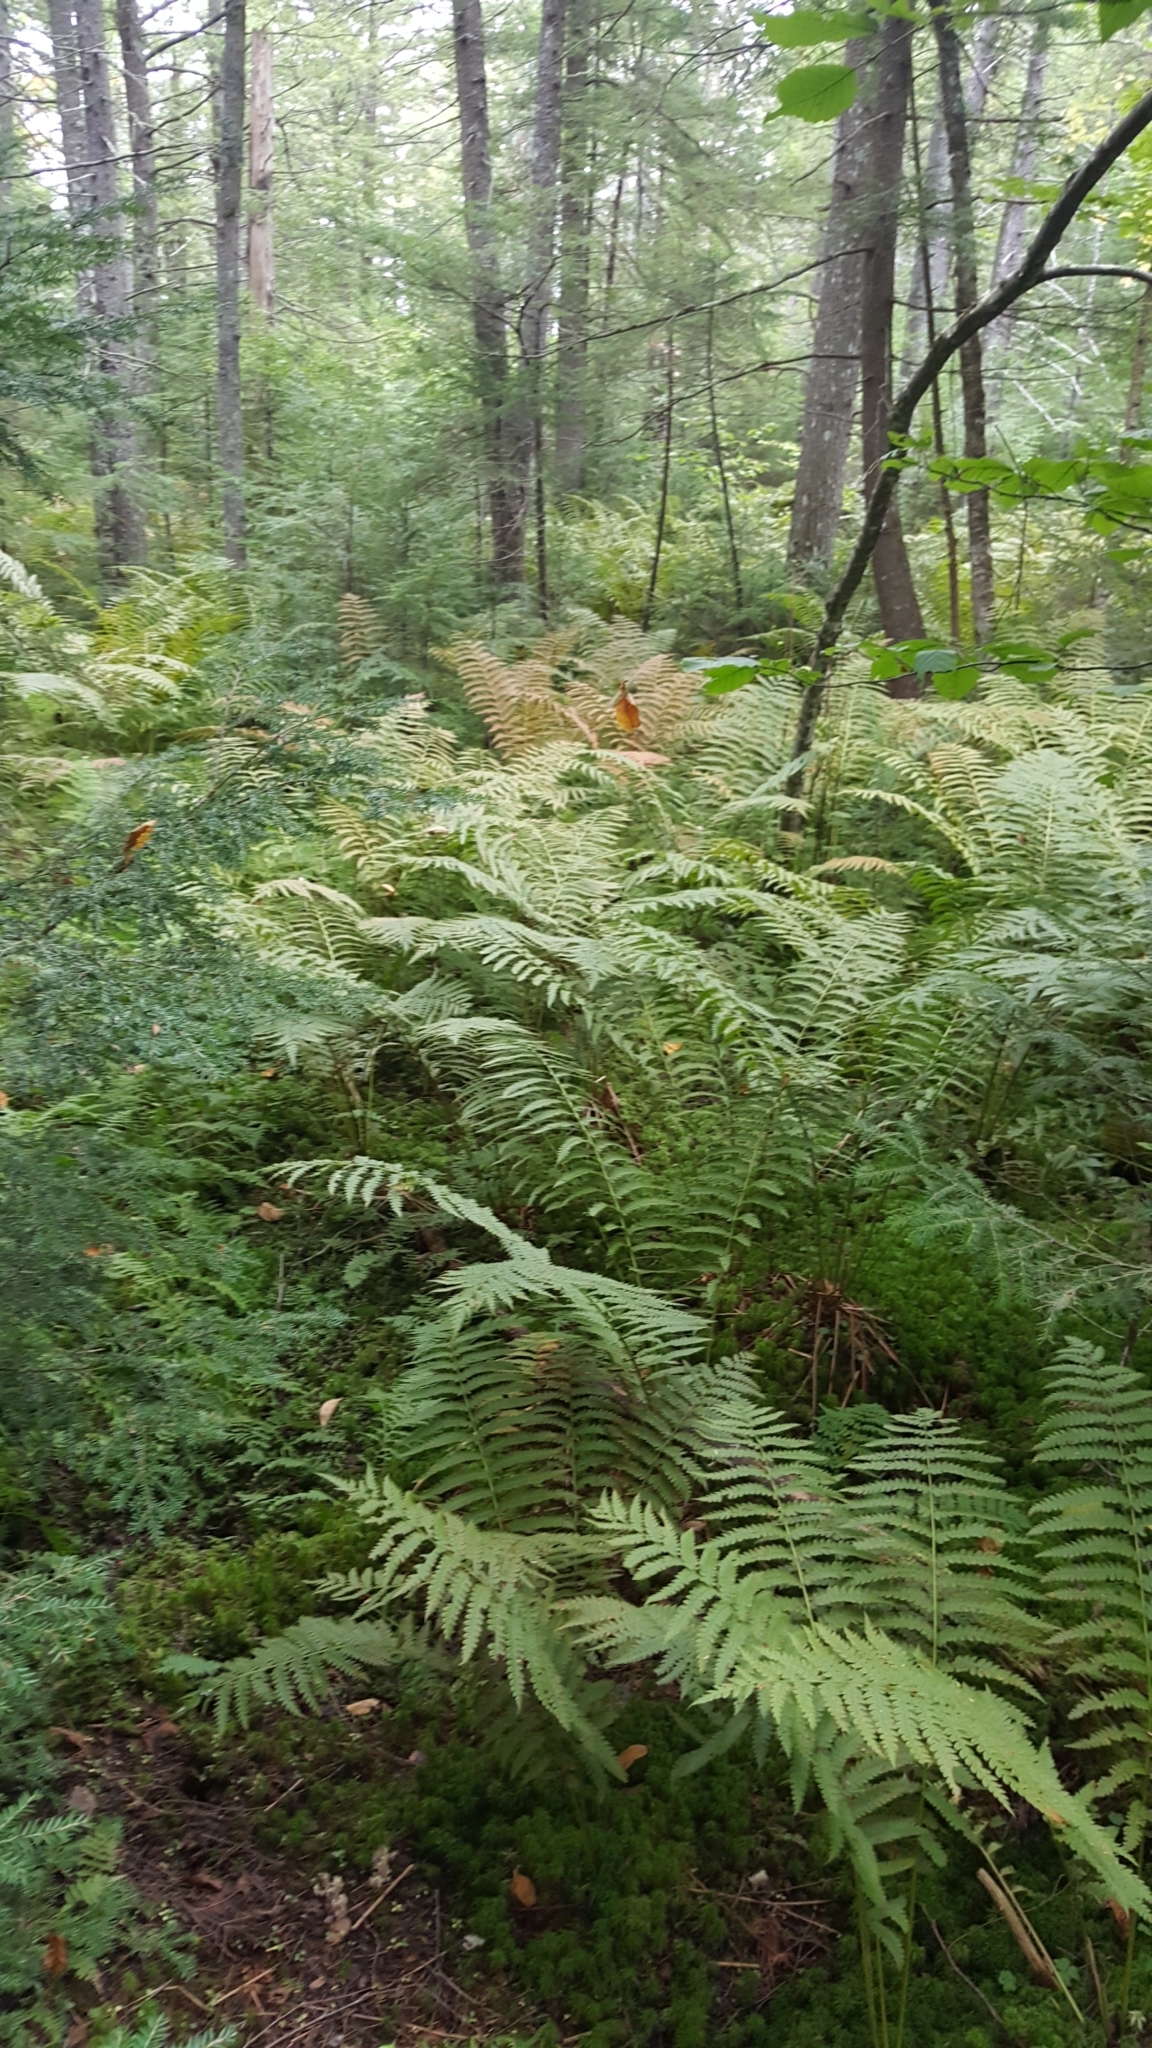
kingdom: Plantae
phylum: Tracheophyta
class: Polypodiopsida
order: Osmundales
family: Osmundaceae
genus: Osmundastrum
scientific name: Osmundastrum cinnamomeum
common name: Cinnamon fern
